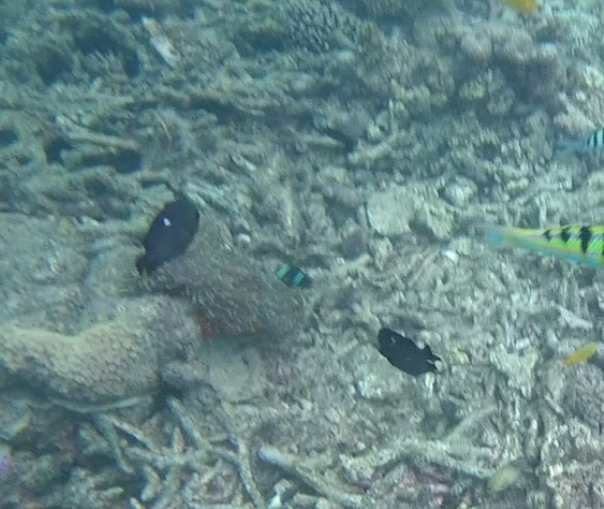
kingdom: Animalia
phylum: Chordata
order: Perciformes
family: Pomacentridae
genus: Amphiprion
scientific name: Amphiprion allardi
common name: Allard's anemonefish
